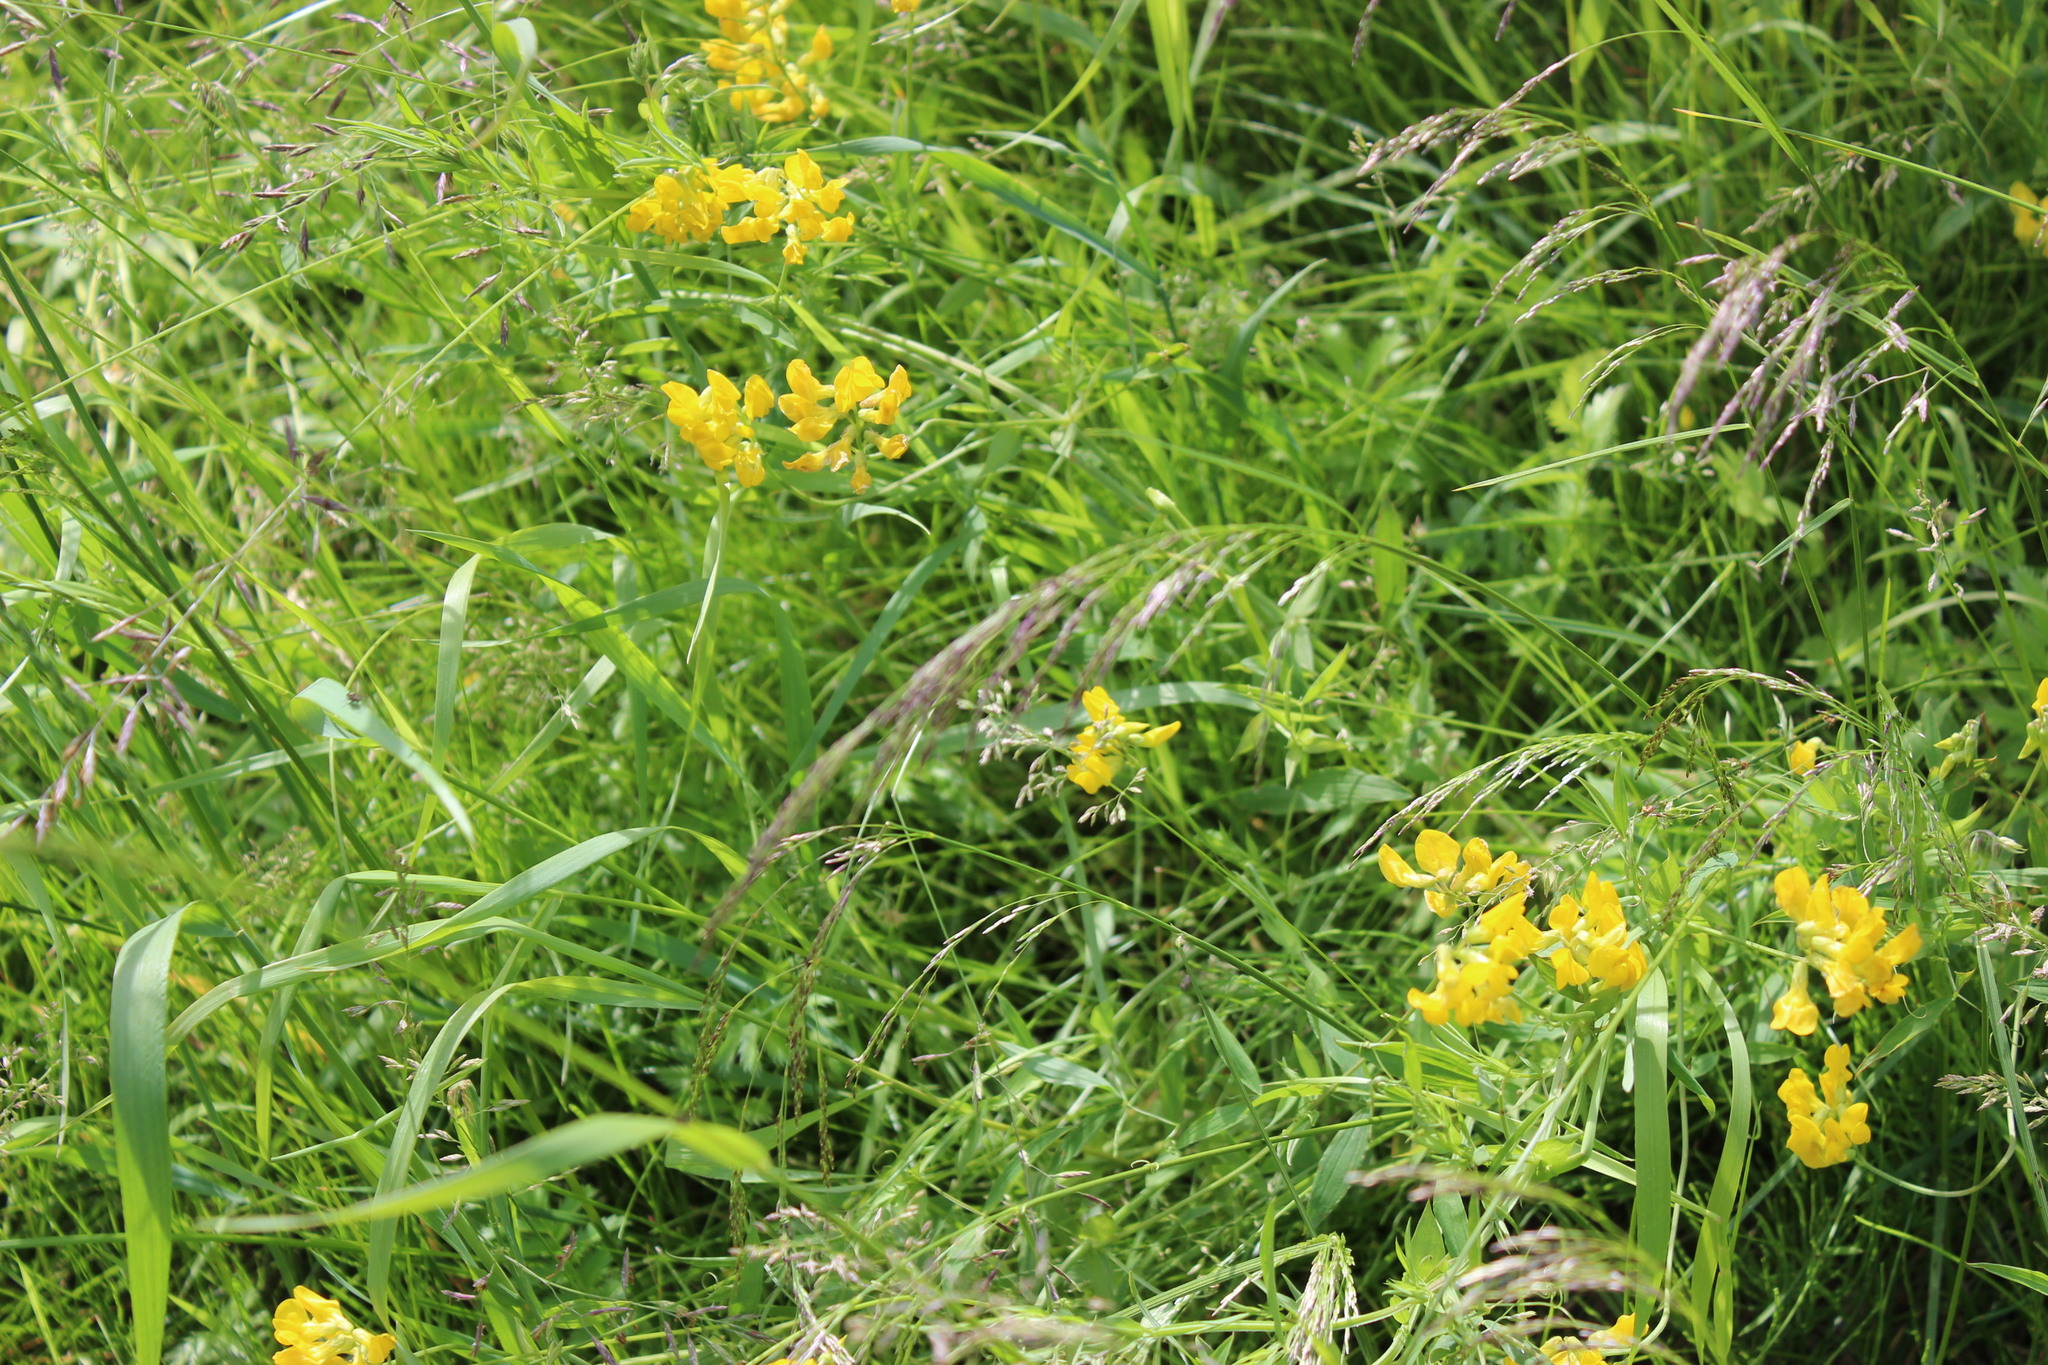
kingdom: Plantae
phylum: Tracheophyta
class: Magnoliopsida
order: Fabales
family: Fabaceae
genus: Lathyrus
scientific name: Lathyrus pratensis
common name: Meadow vetchling
